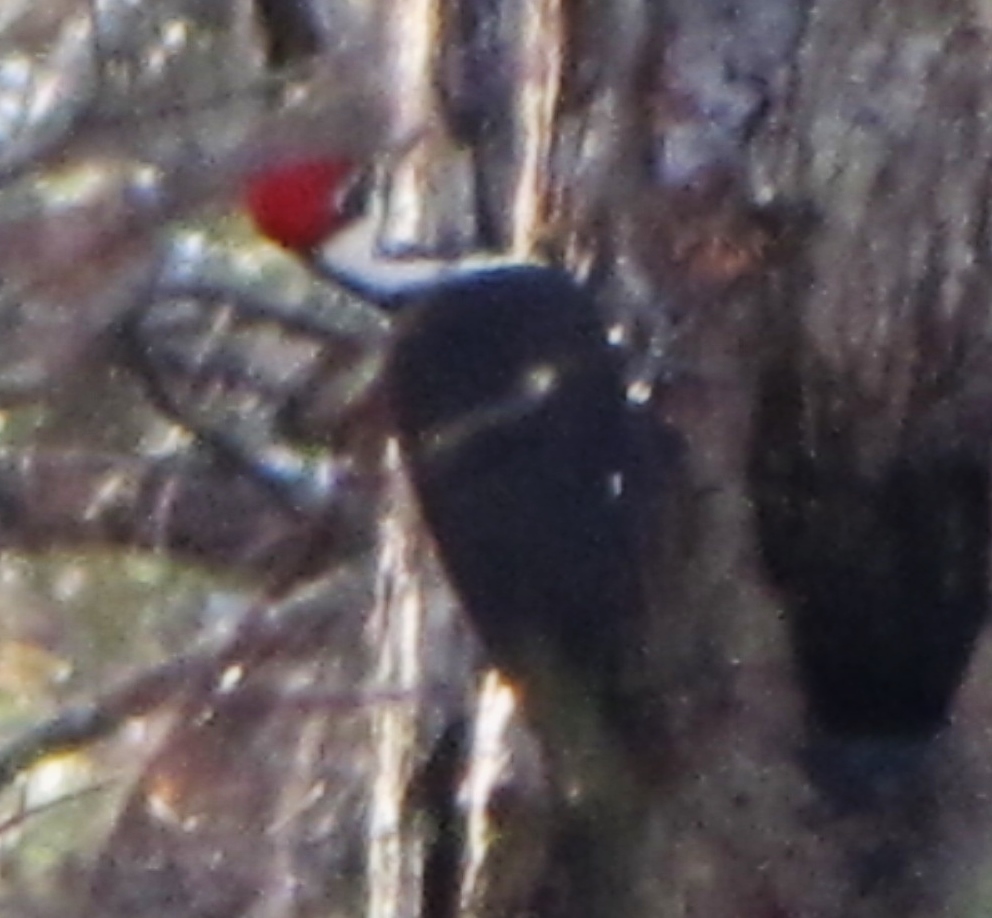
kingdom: Animalia
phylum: Chordata
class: Aves
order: Piciformes
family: Picidae
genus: Dryocopus
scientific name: Dryocopus pileatus
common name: Pileated woodpecker
